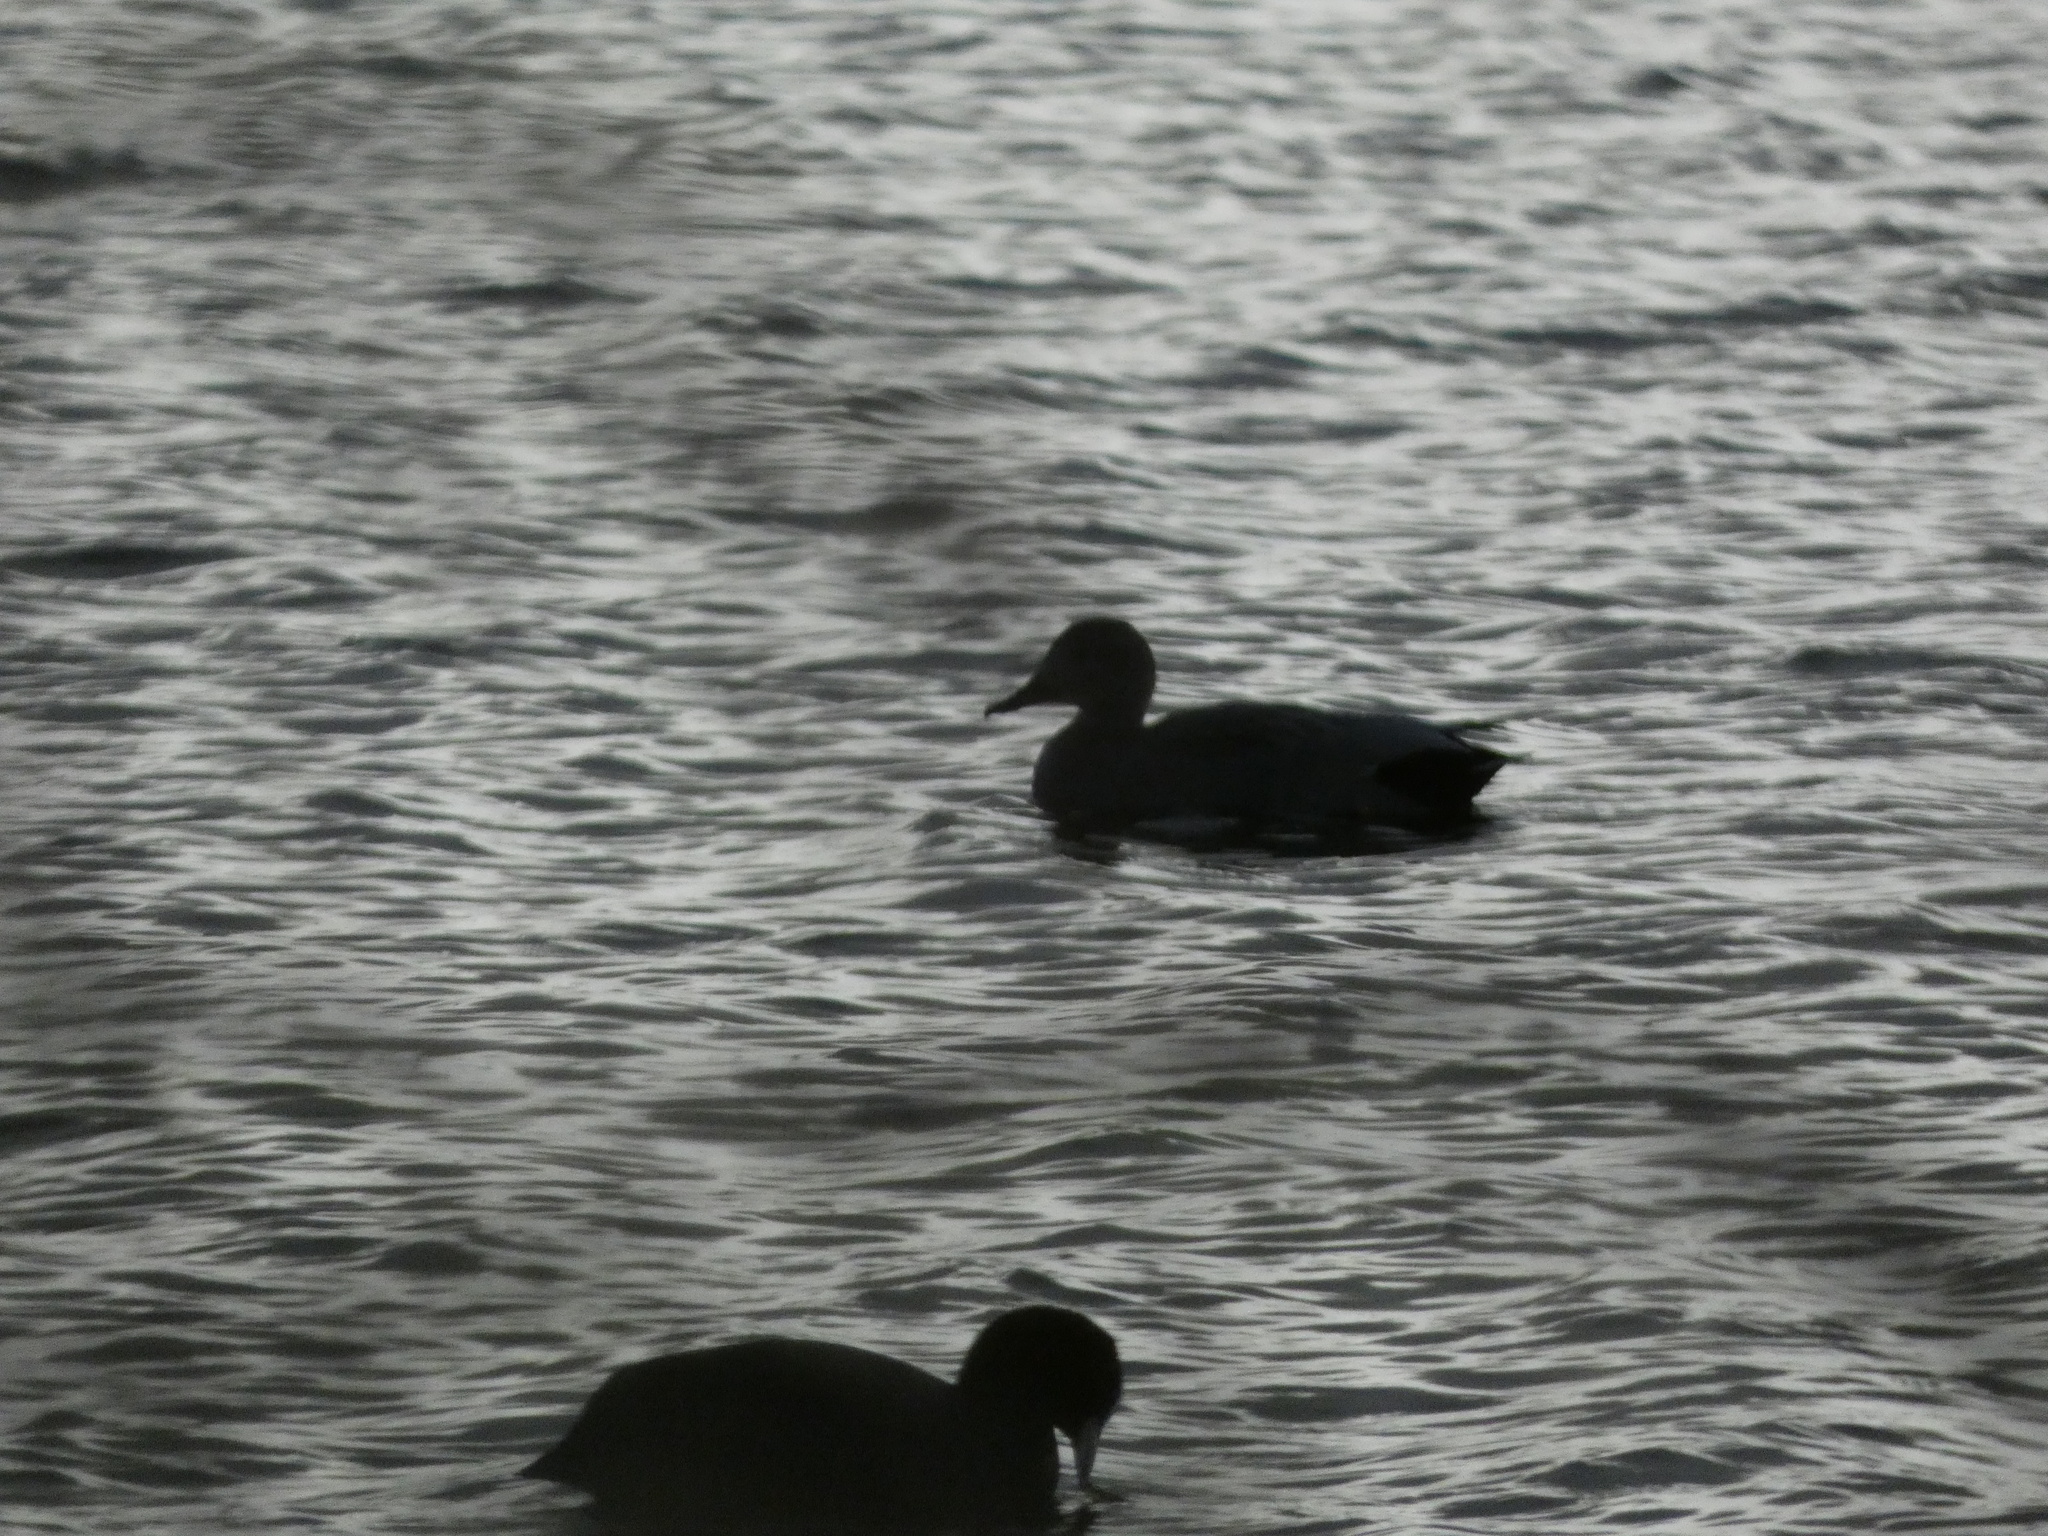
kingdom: Animalia
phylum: Chordata
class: Aves
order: Anseriformes
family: Anatidae
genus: Mareca
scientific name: Mareca strepera
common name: Gadwall
